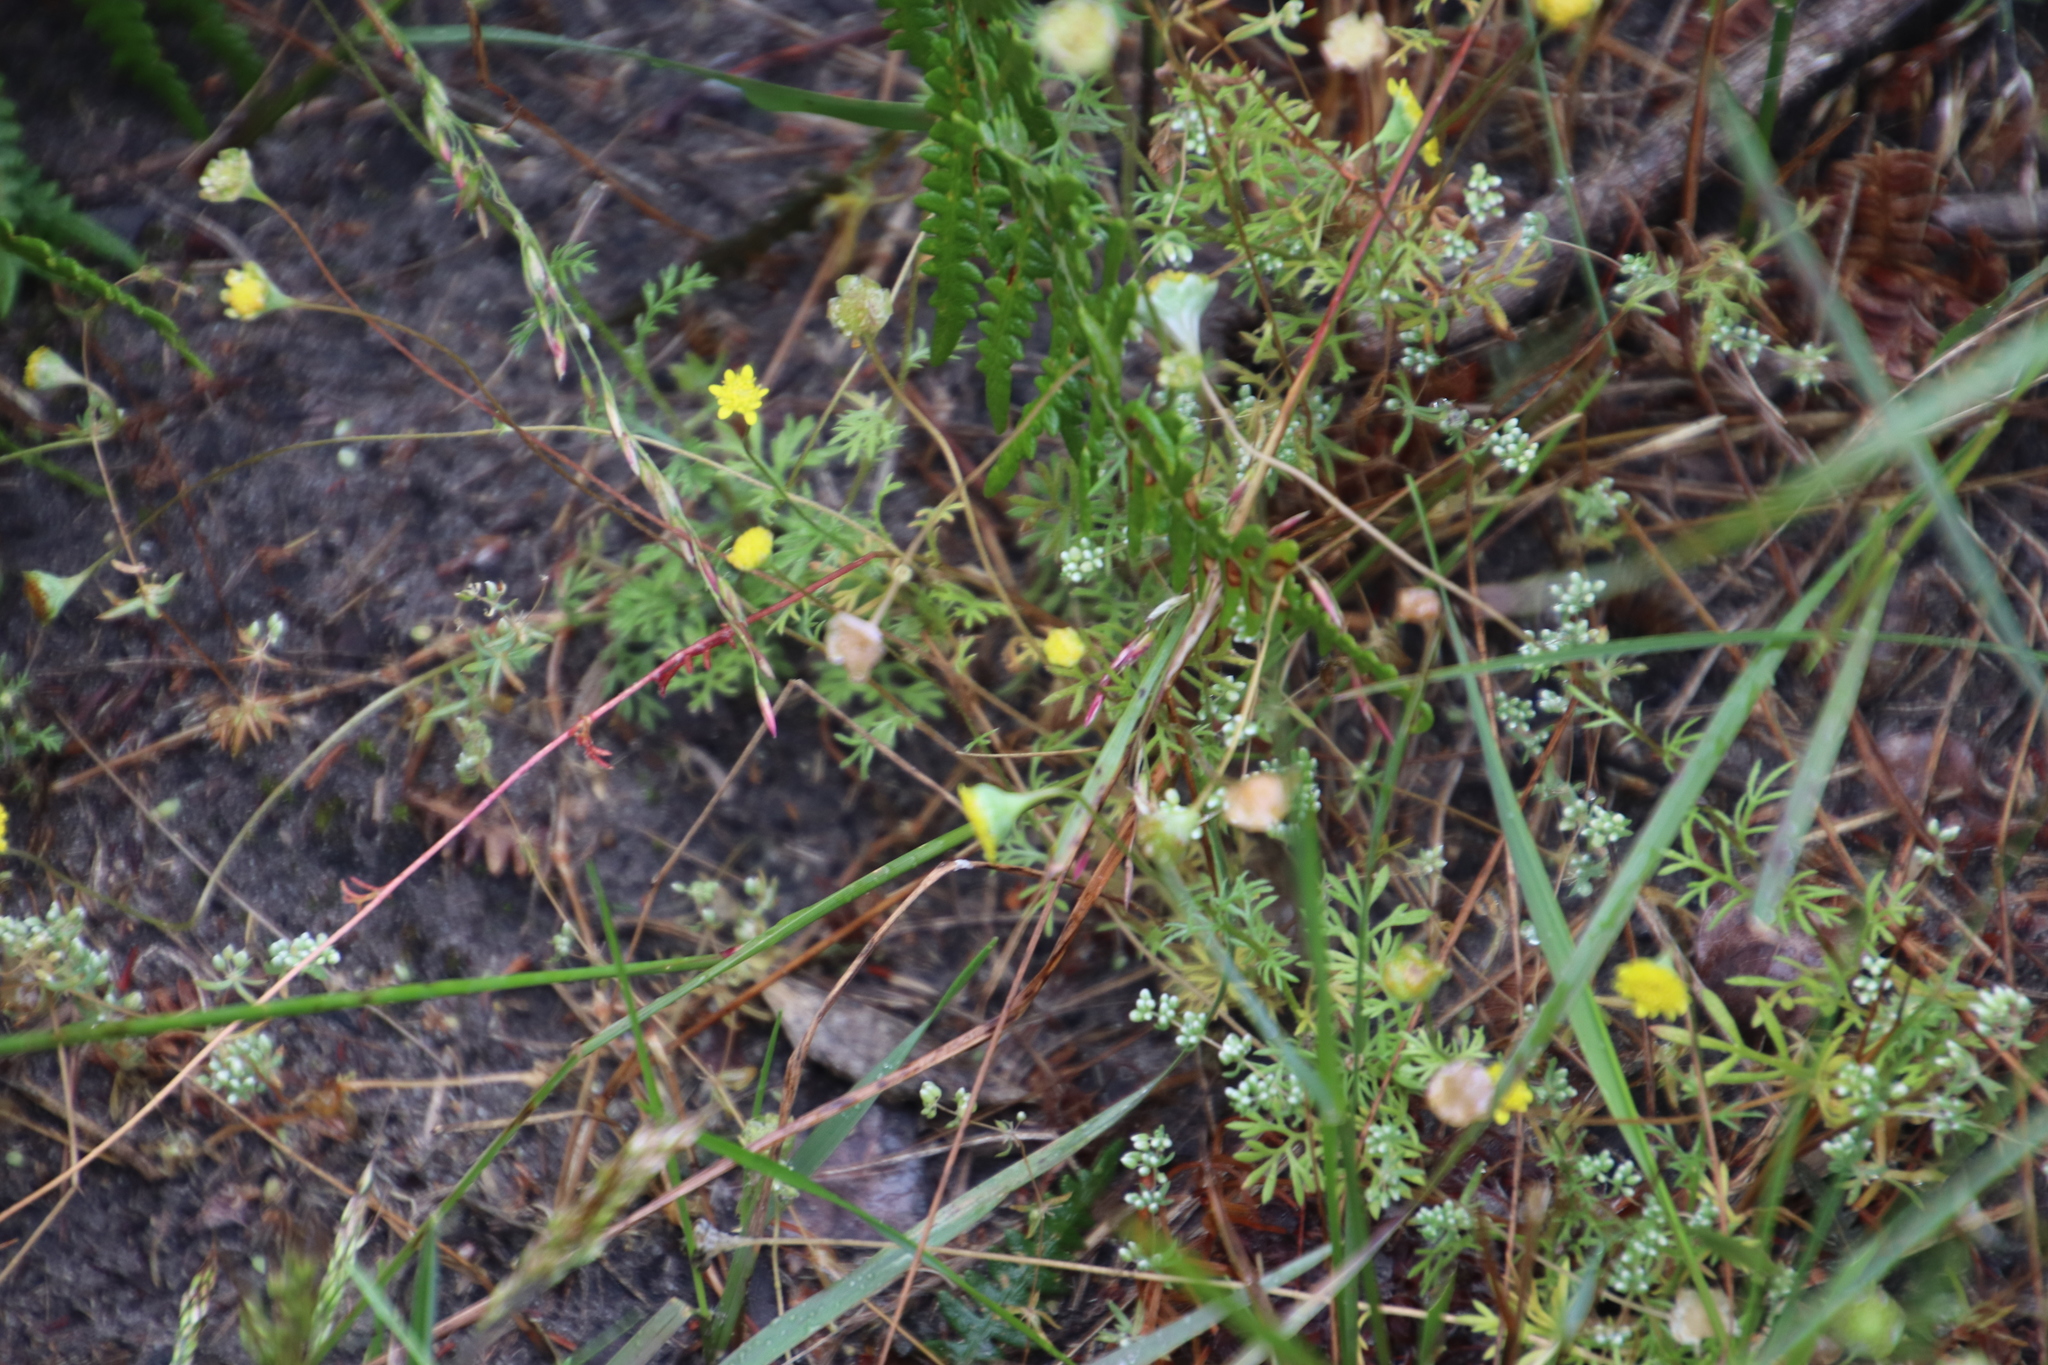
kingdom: Plantae
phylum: Tracheophyta
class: Magnoliopsida
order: Asterales
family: Asteraceae
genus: Cotula
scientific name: Cotula pruinosa
